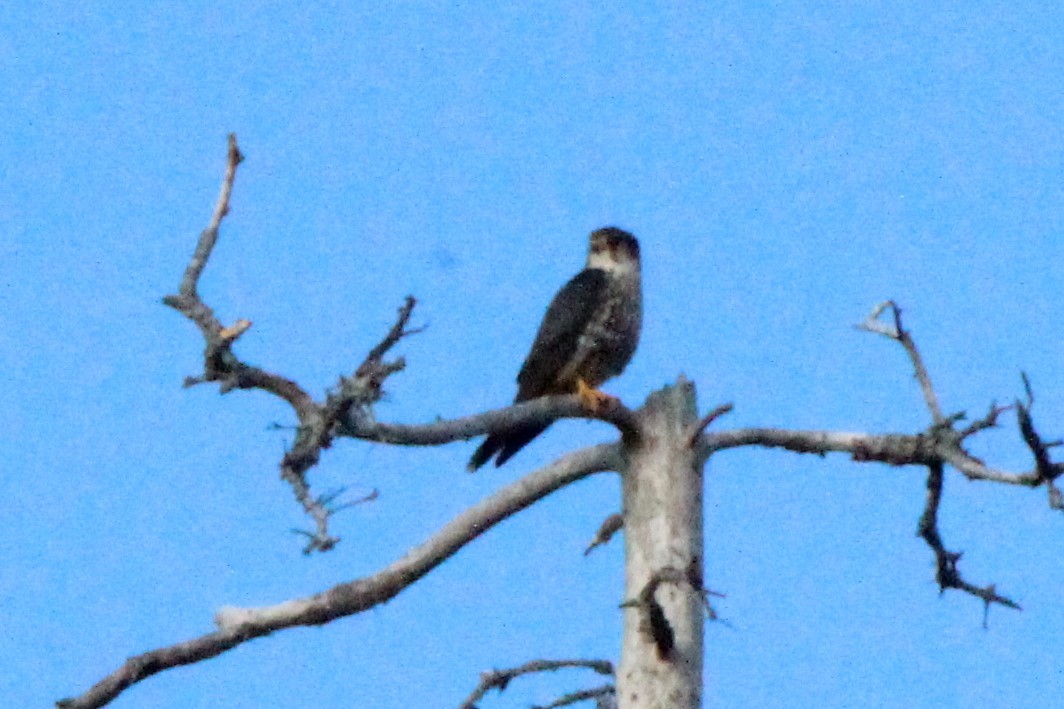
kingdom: Animalia
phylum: Chordata
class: Aves
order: Falconiformes
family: Falconidae
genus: Falco
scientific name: Falco columbarius
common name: Merlin
